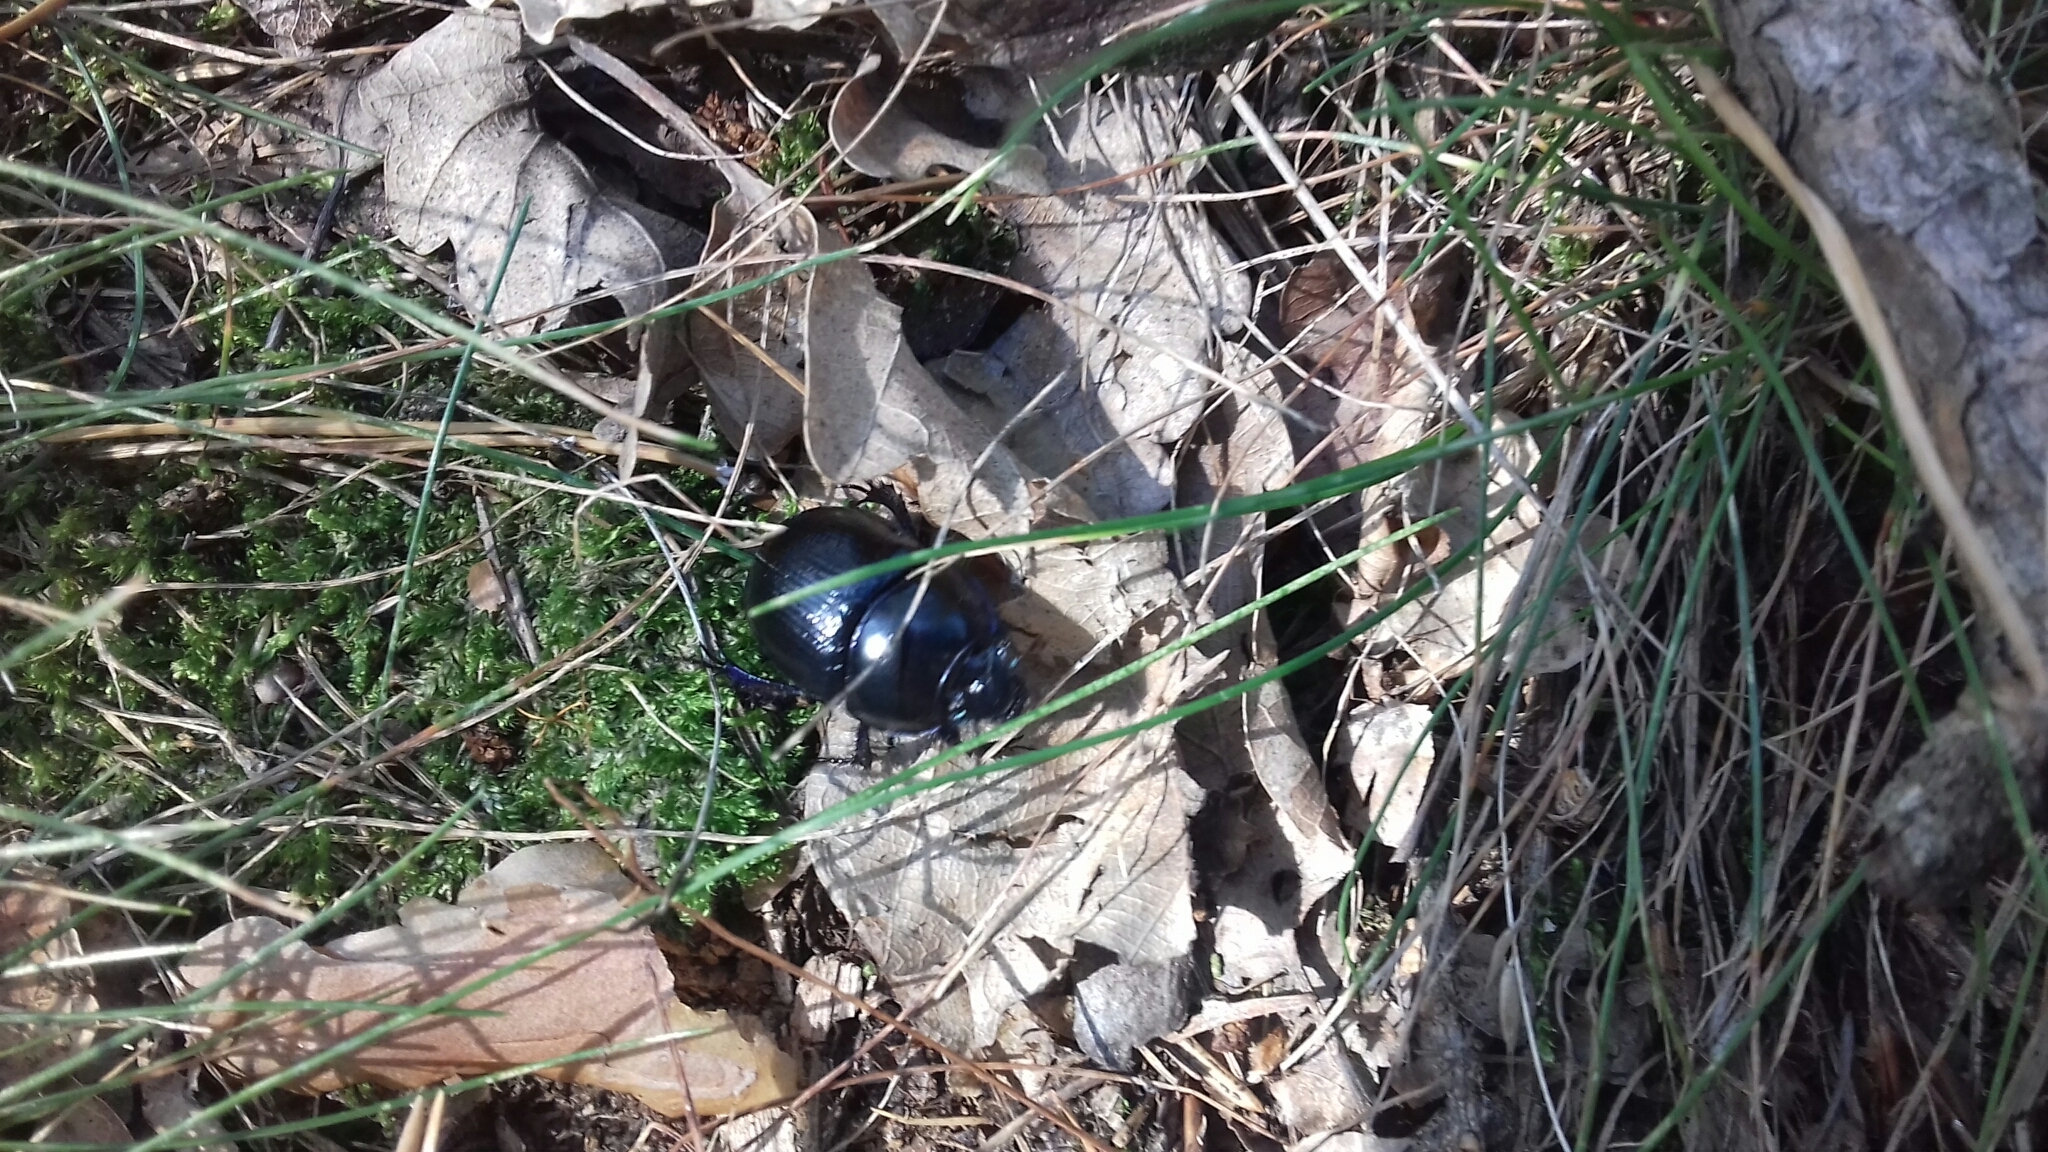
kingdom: Animalia
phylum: Arthropoda
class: Insecta
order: Coleoptera
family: Geotrupidae
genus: Anoplotrupes
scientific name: Anoplotrupes stercorosus
